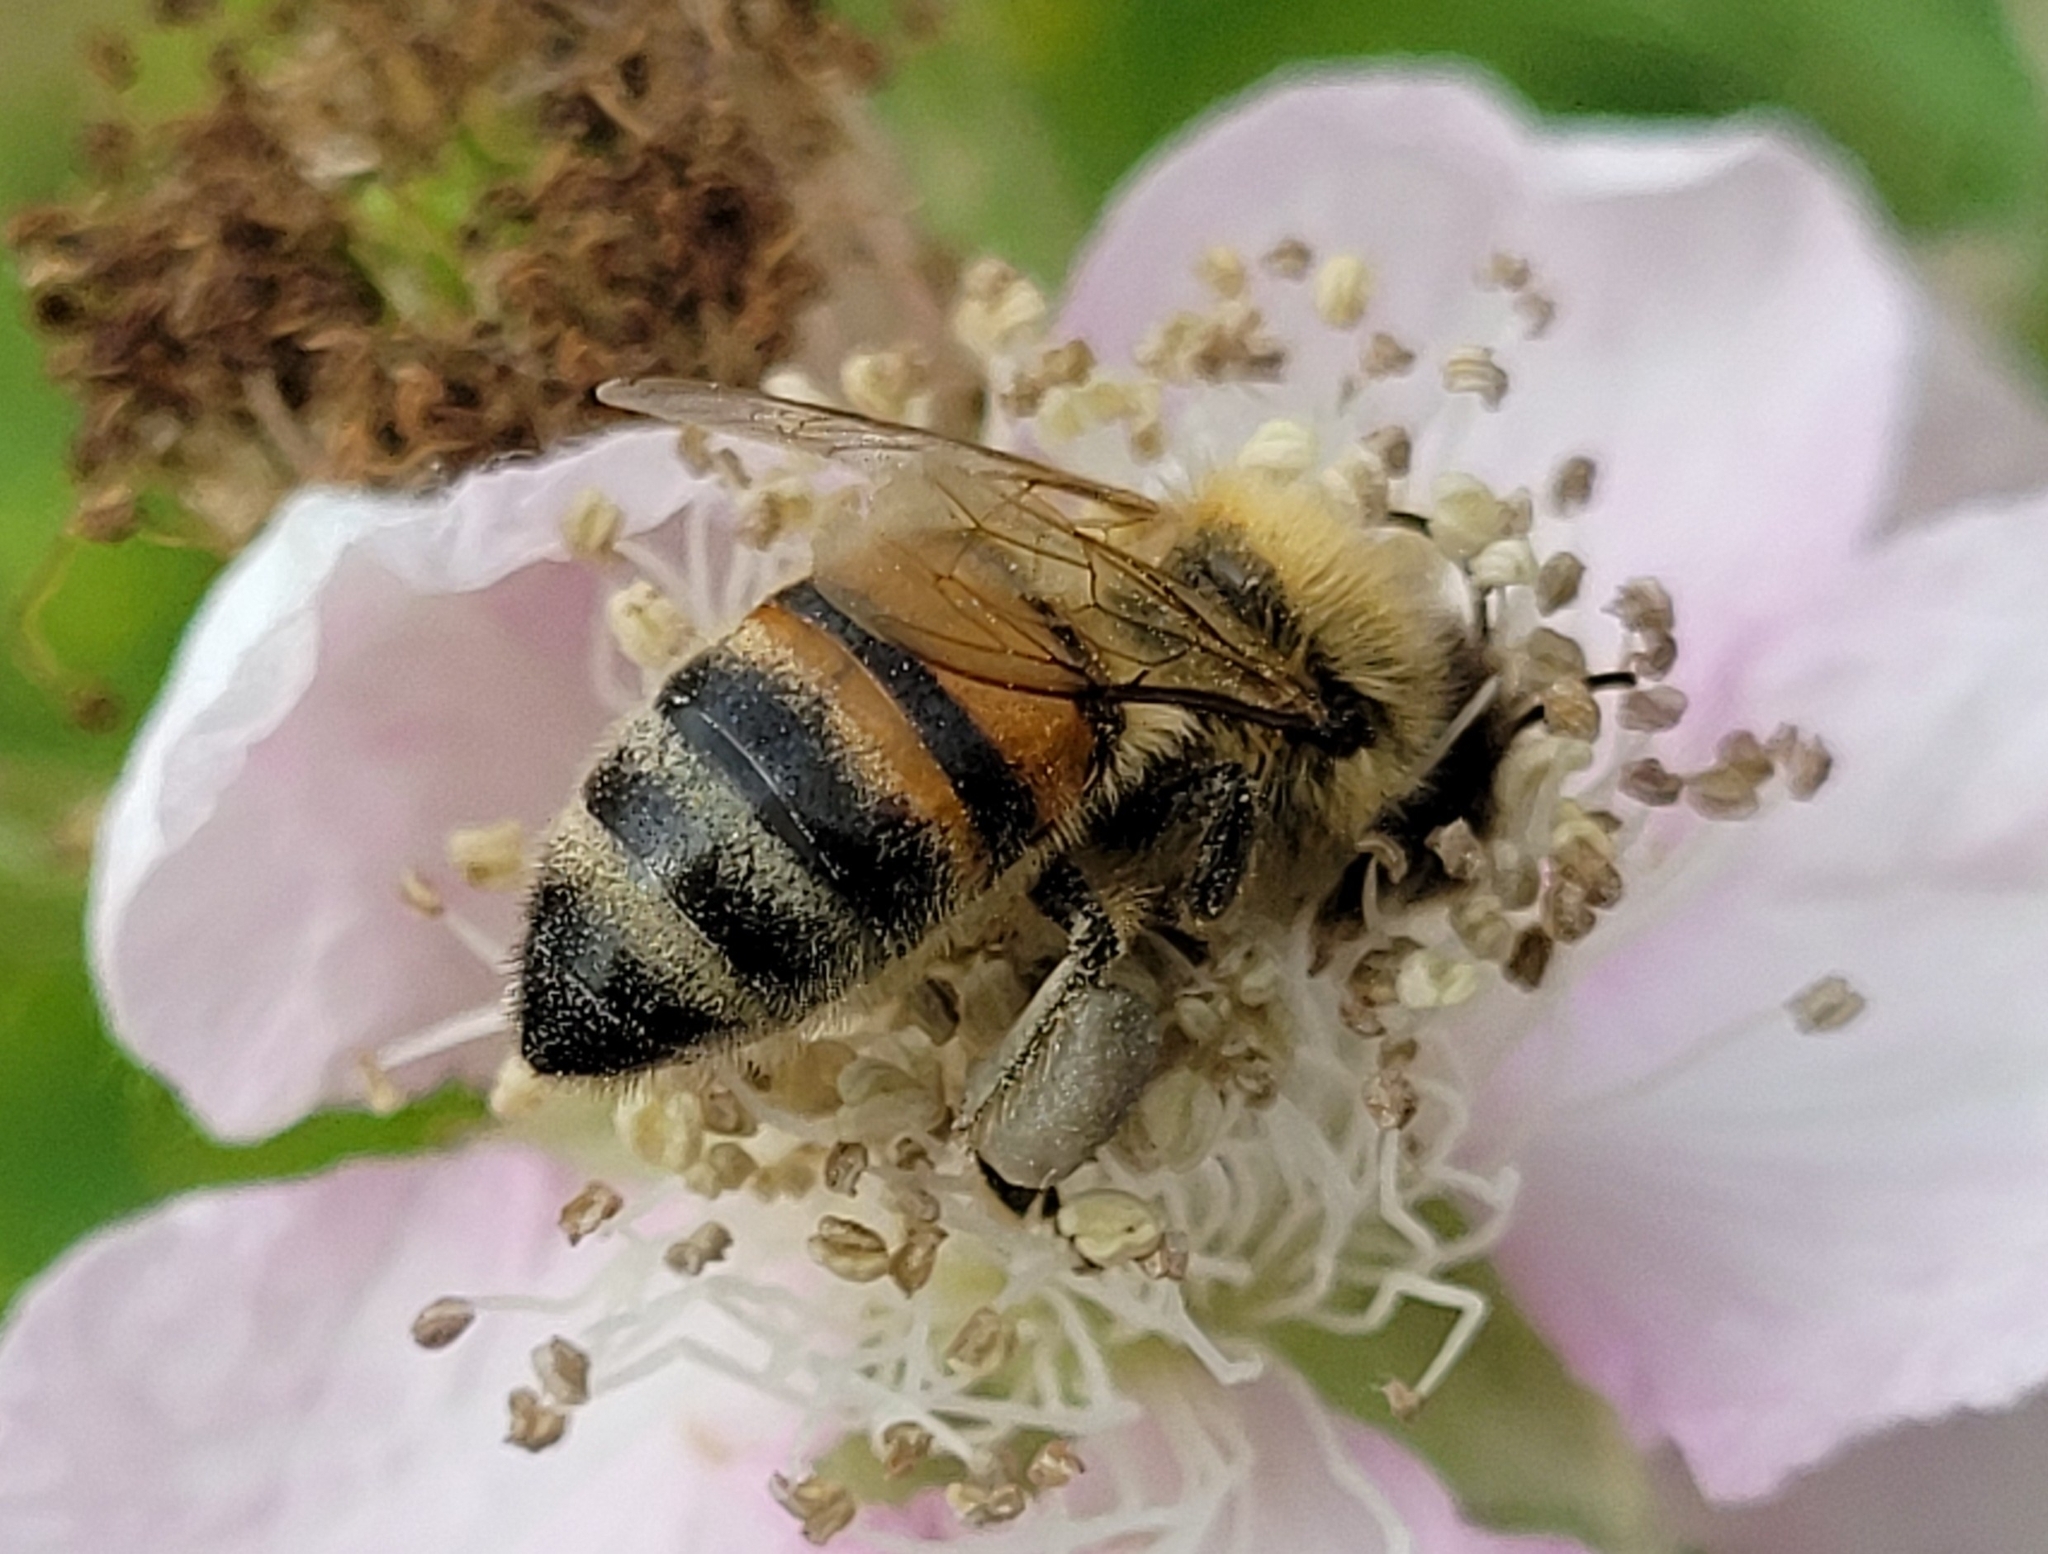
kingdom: Animalia
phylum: Arthropoda
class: Insecta
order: Hymenoptera
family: Apidae
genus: Apis
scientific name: Apis mellifera
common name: Honey bee
